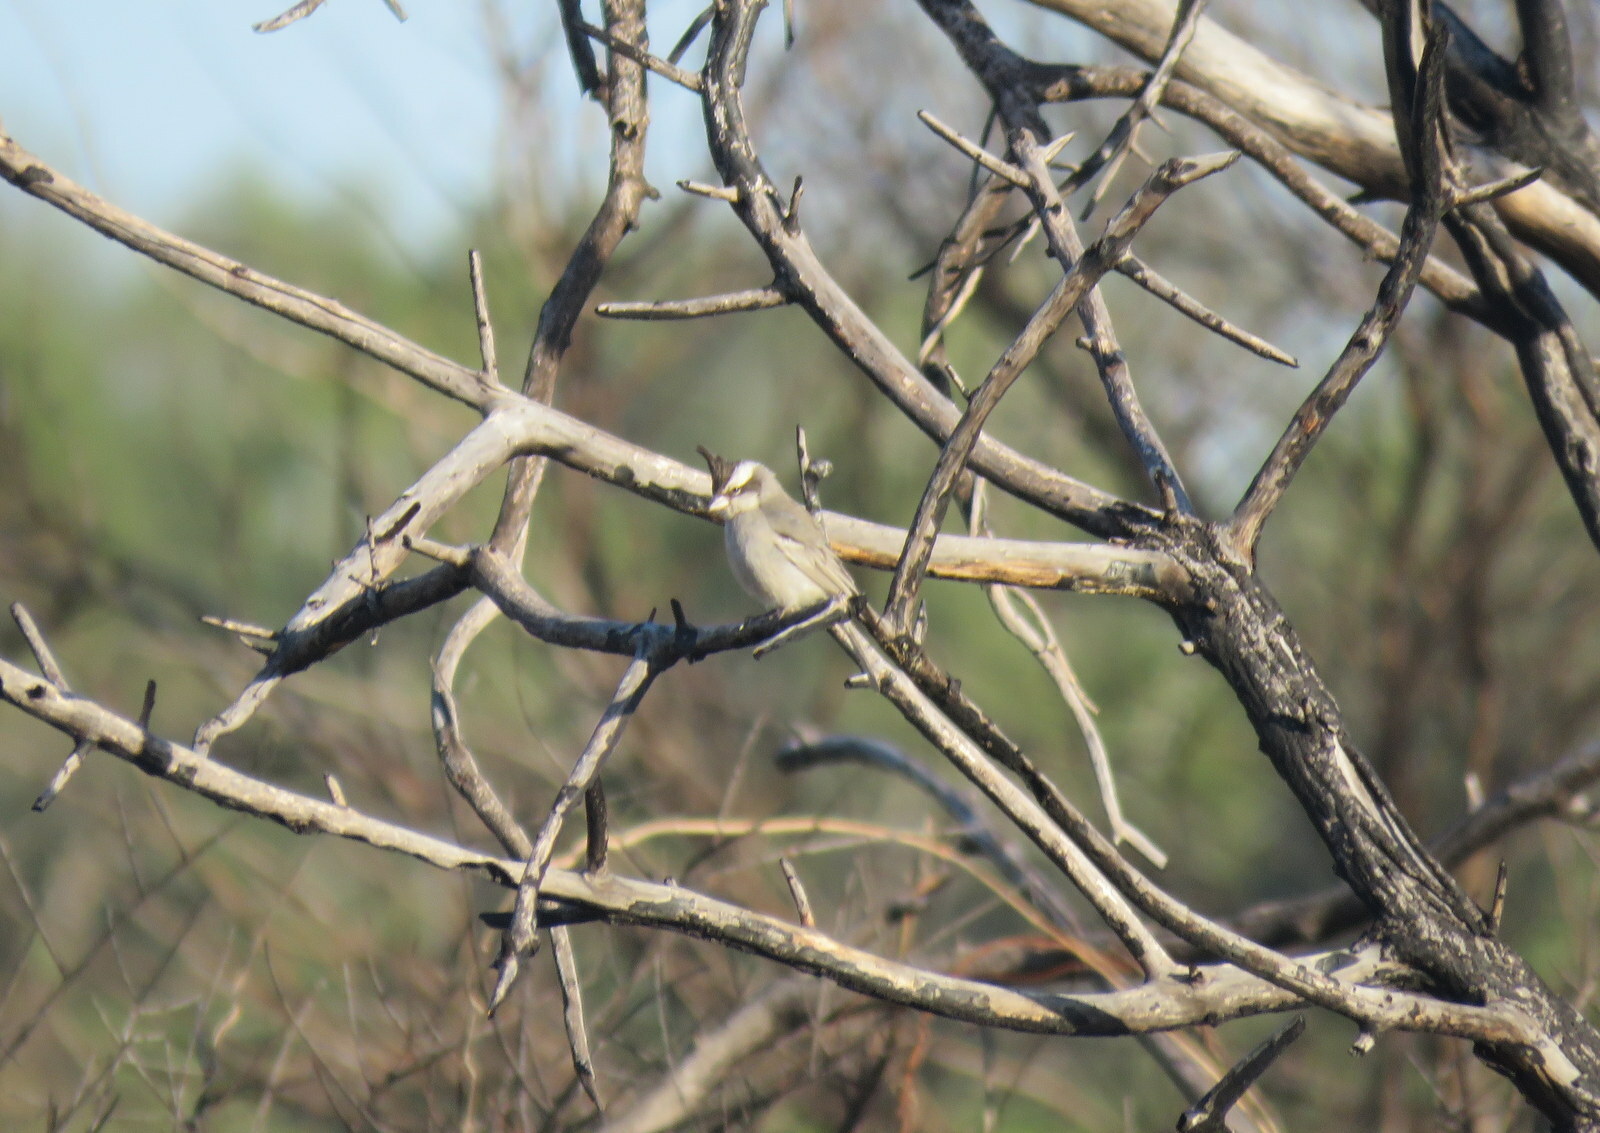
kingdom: Animalia
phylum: Chordata
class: Aves
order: Passeriformes
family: Thraupidae
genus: Lophospingus
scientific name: Lophospingus pusillus
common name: Black-crested finch
